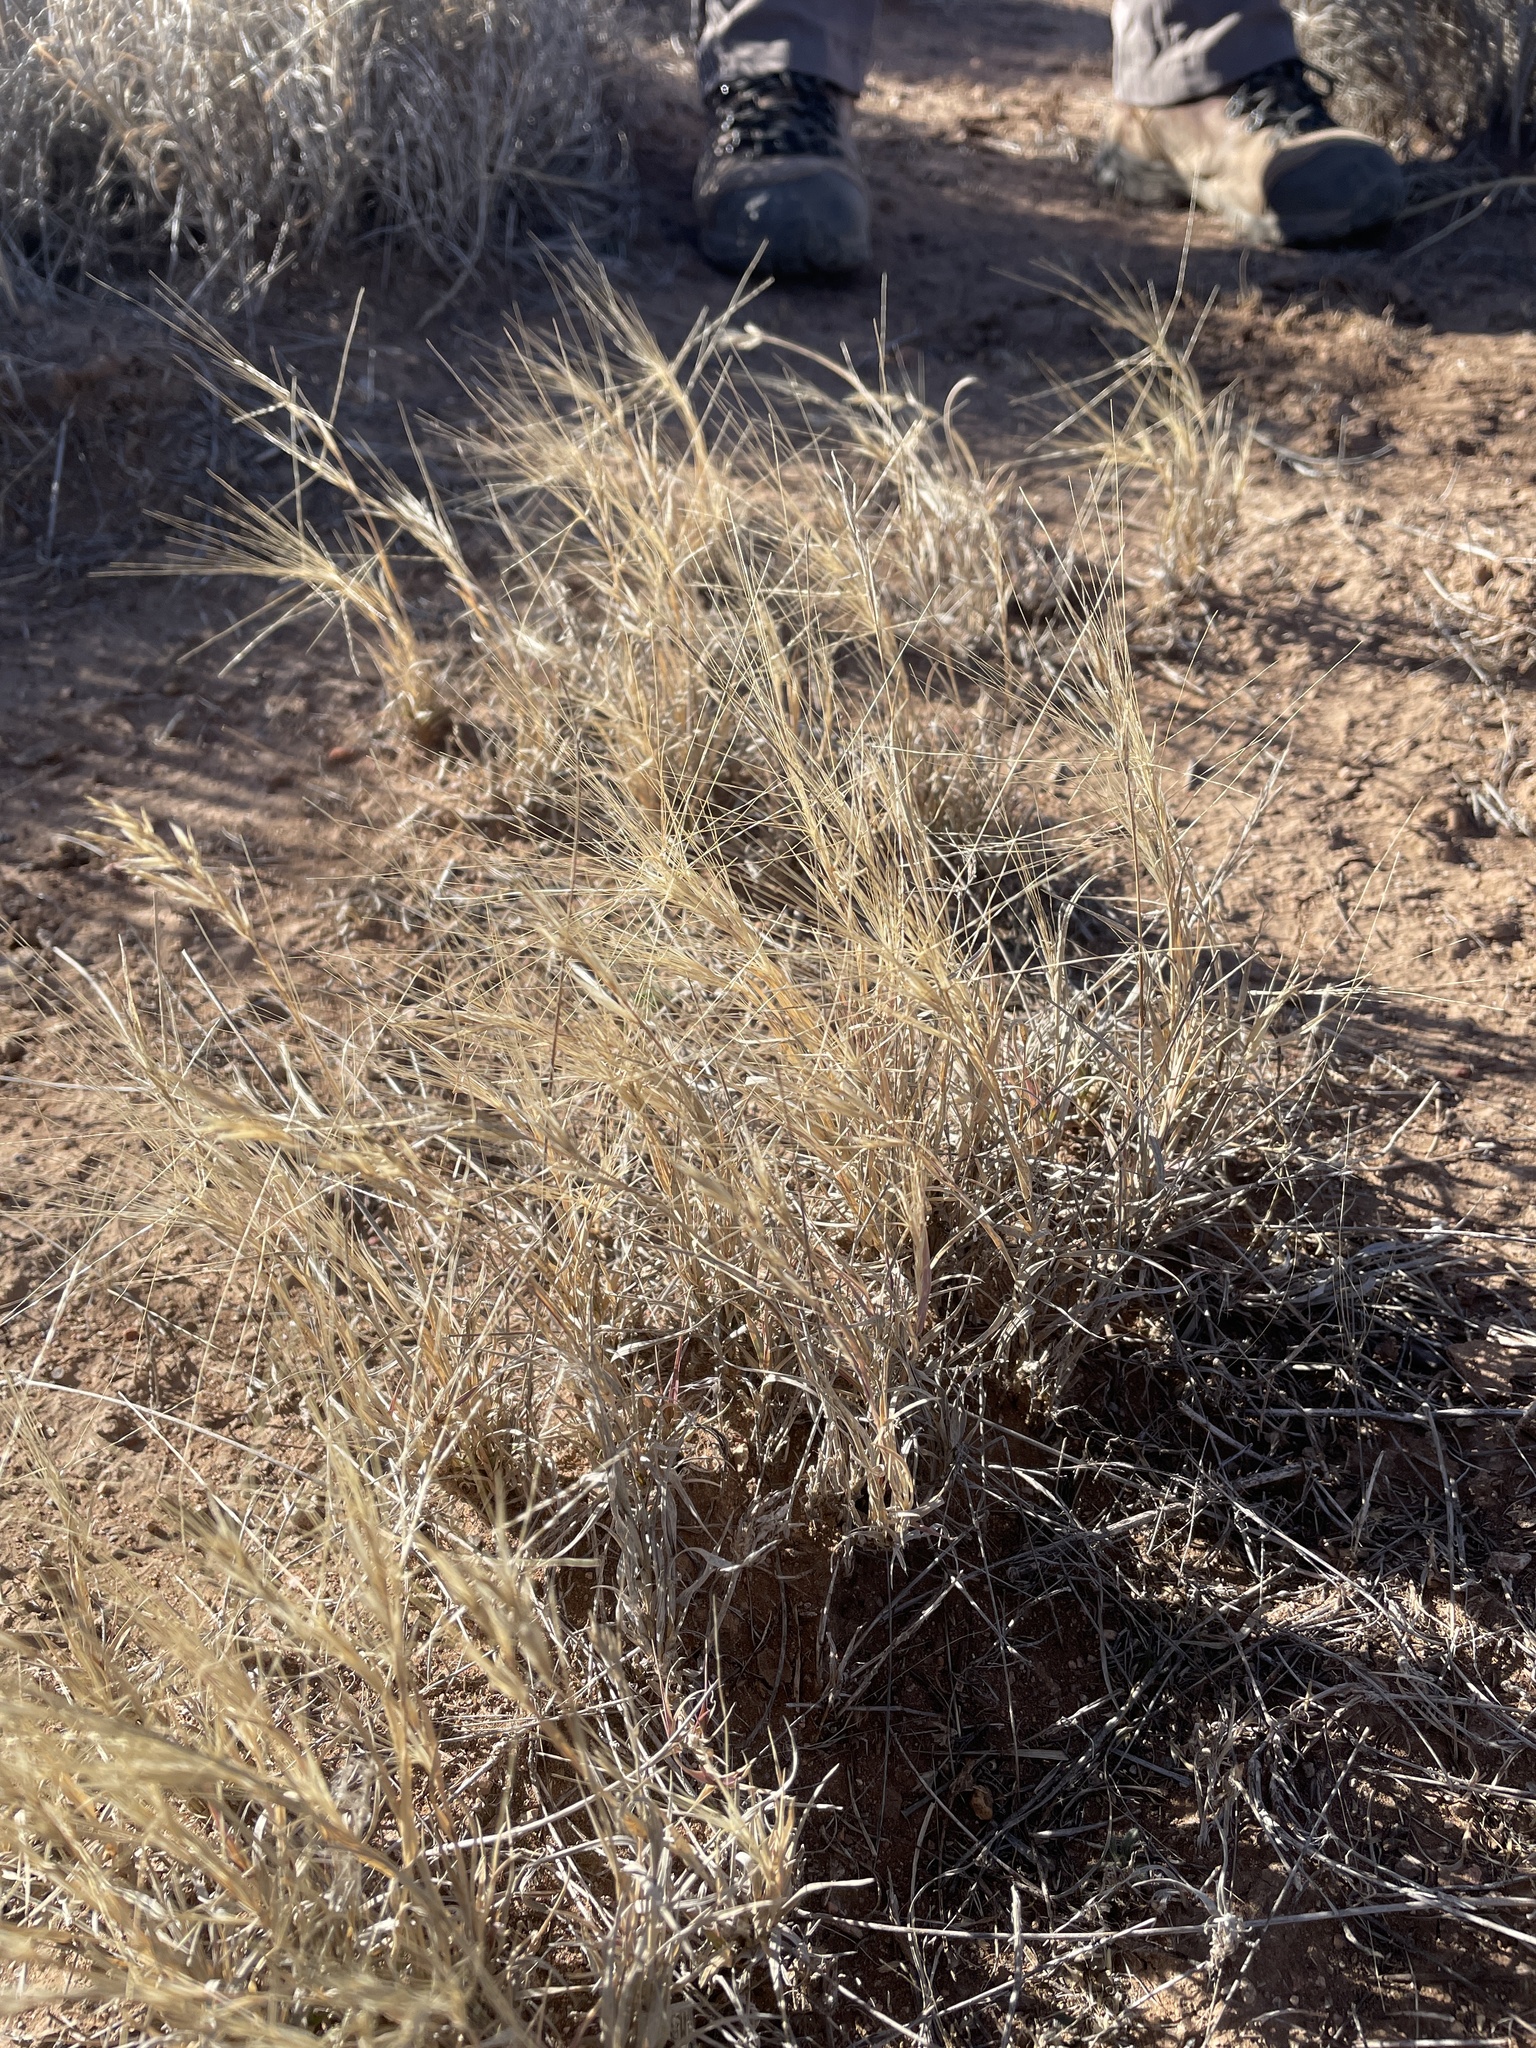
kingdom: Plantae
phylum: Tracheophyta
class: Liliopsida
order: Poales
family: Poaceae
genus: Scleropogon
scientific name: Scleropogon brevifolius
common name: Burro grass
